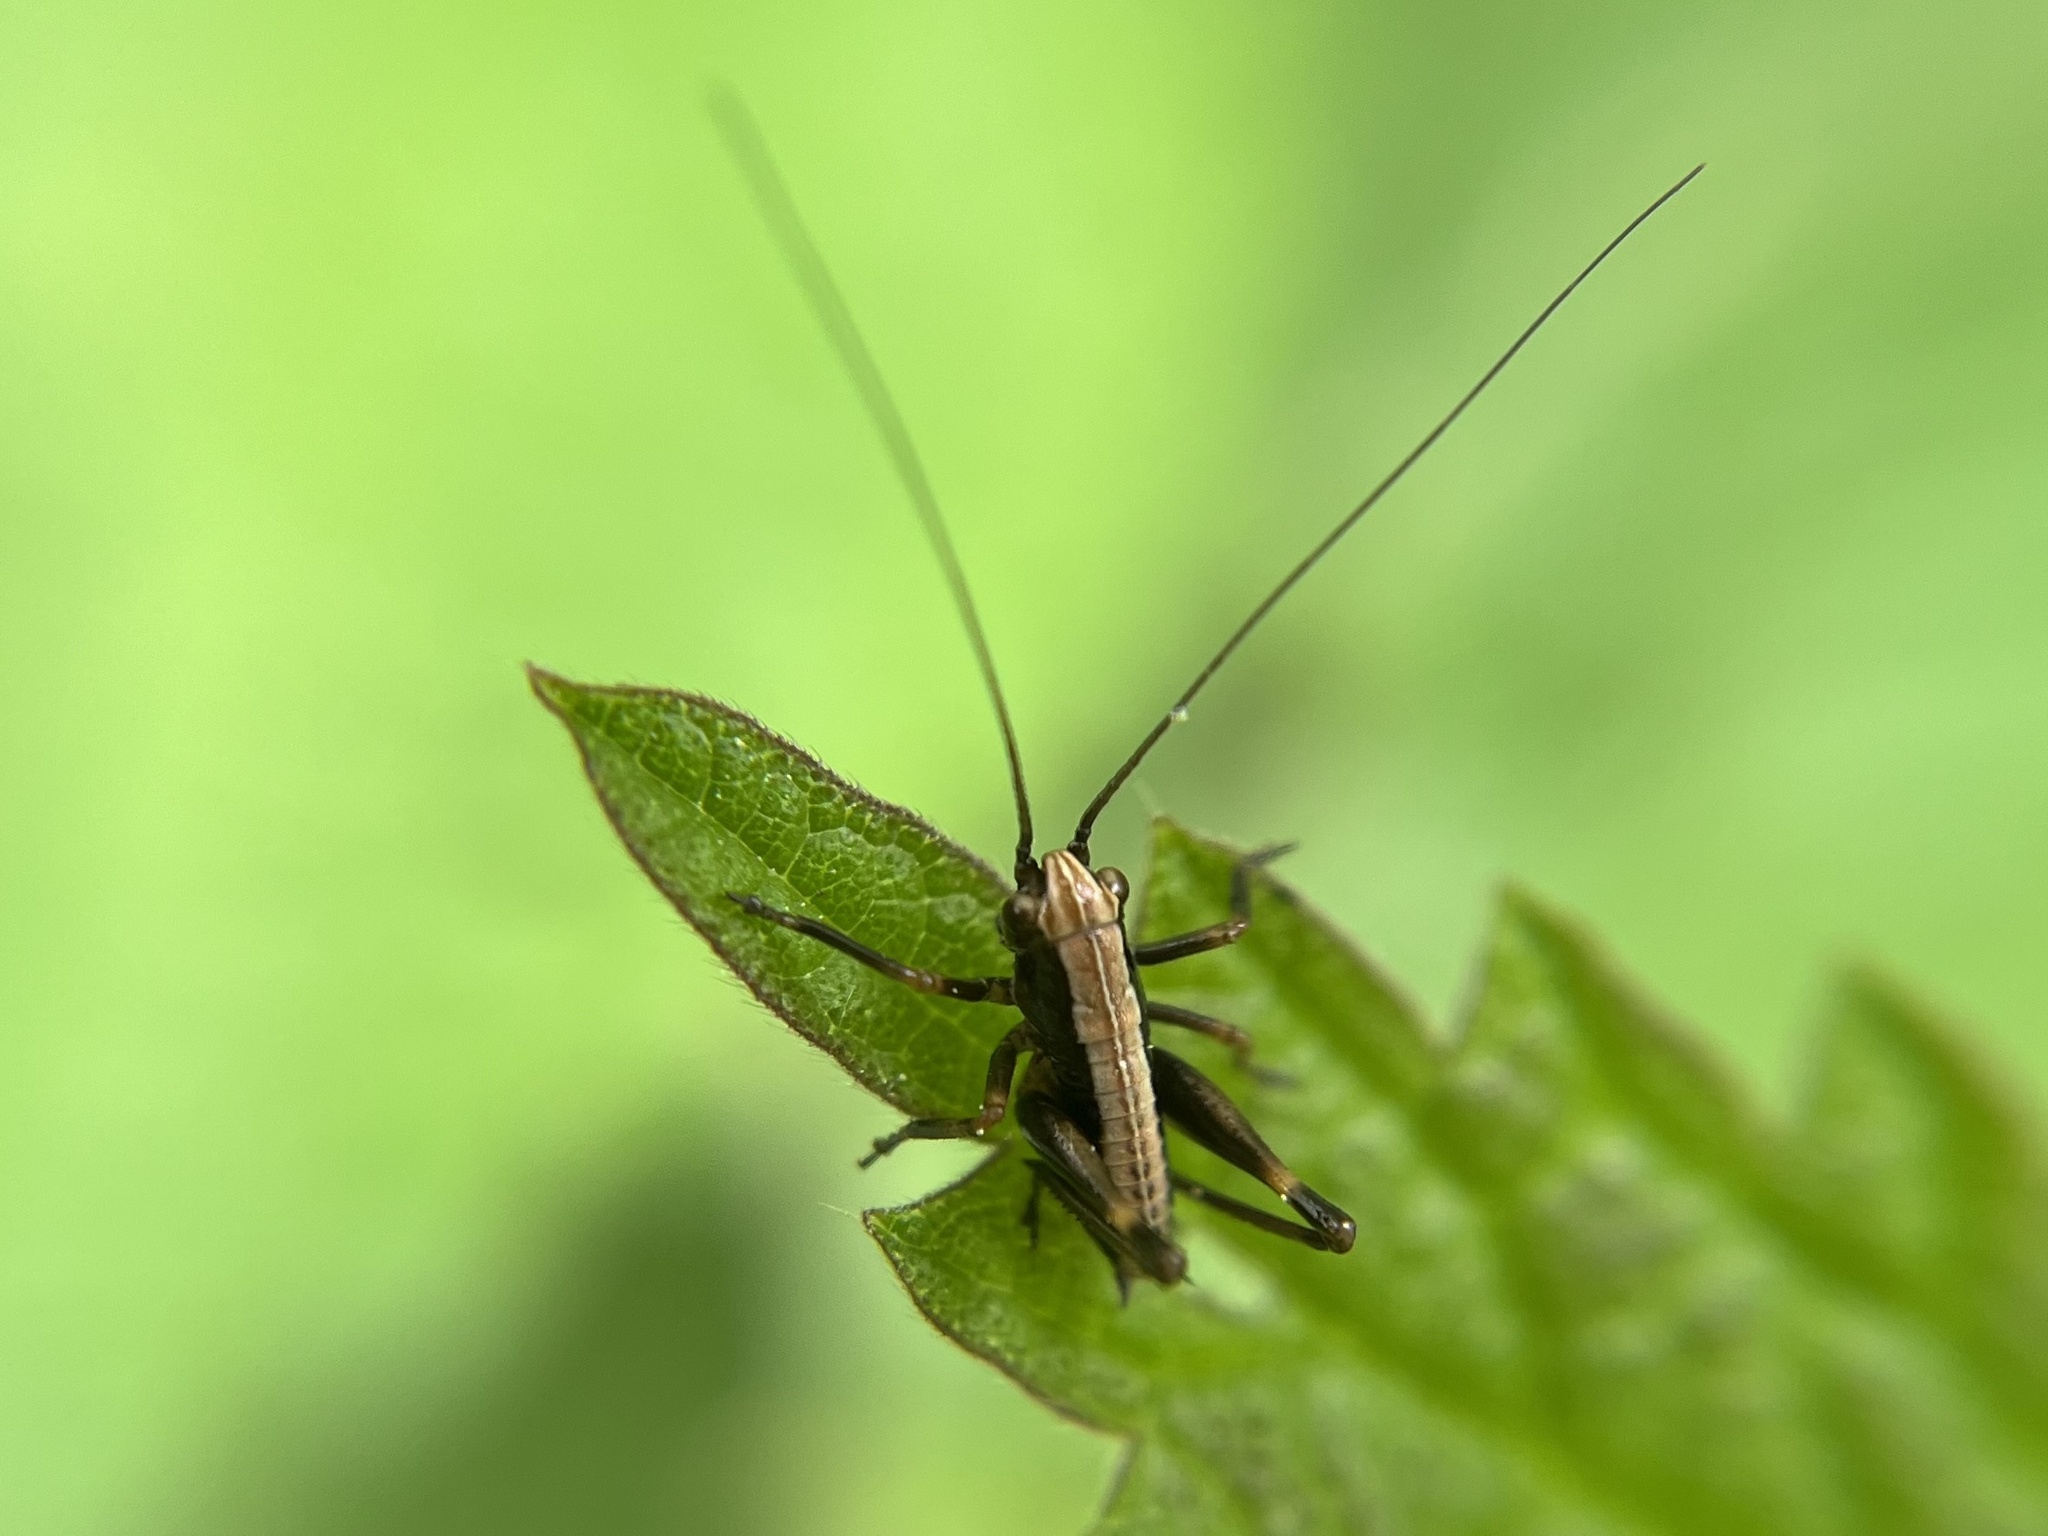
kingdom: Animalia
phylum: Arthropoda
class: Insecta
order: Orthoptera
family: Tettigoniidae
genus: Pholidoptera
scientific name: Pholidoptera griseoaptera
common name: Dark bush-cricket
